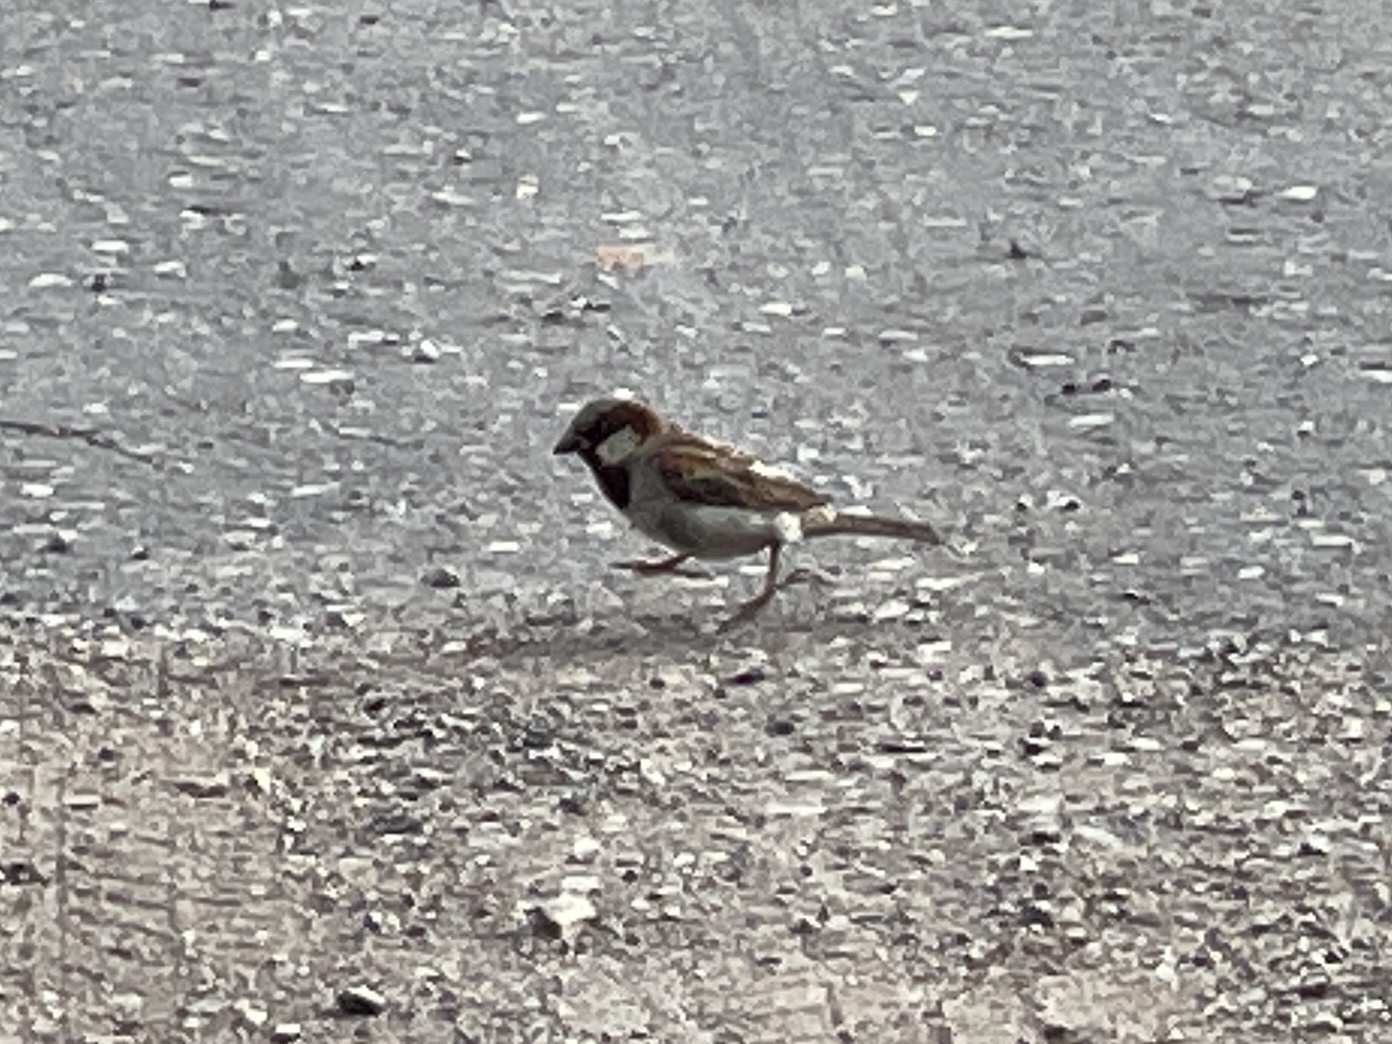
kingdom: Animalia
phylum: Chordata
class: Aves
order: Passeriformes
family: Passeridae
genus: Passer
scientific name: Passer domesticus
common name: House sparrow
